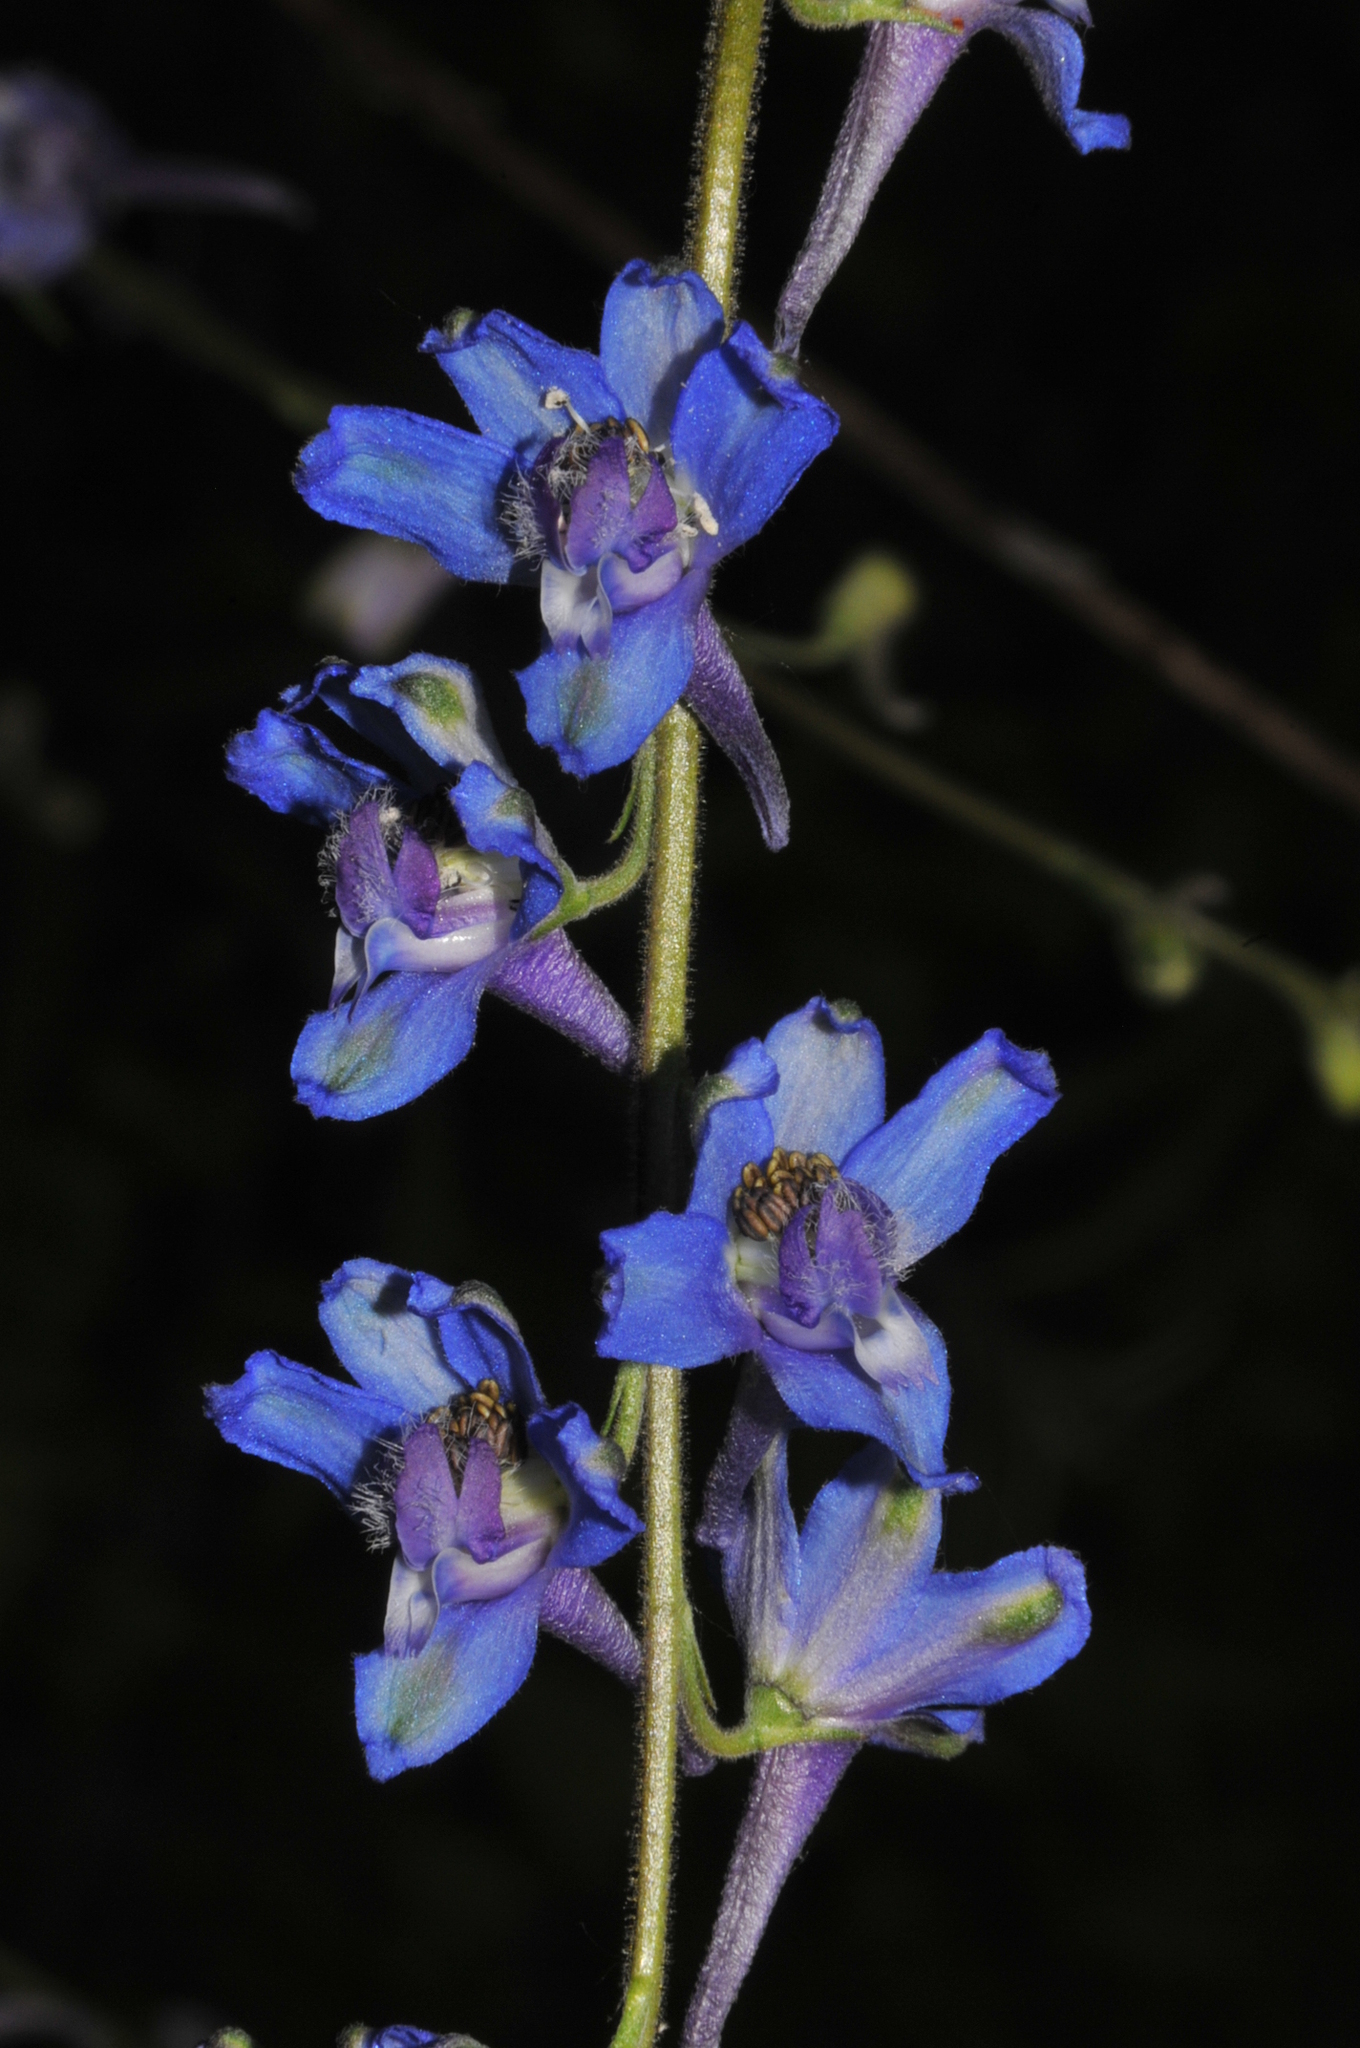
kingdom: Plantae
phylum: Tracheophyta
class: Magnoliopsida
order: Ranunculales
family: Ranunculaceae
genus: Delphinium
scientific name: Delphinium carolinianum
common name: Carolina larkspur
